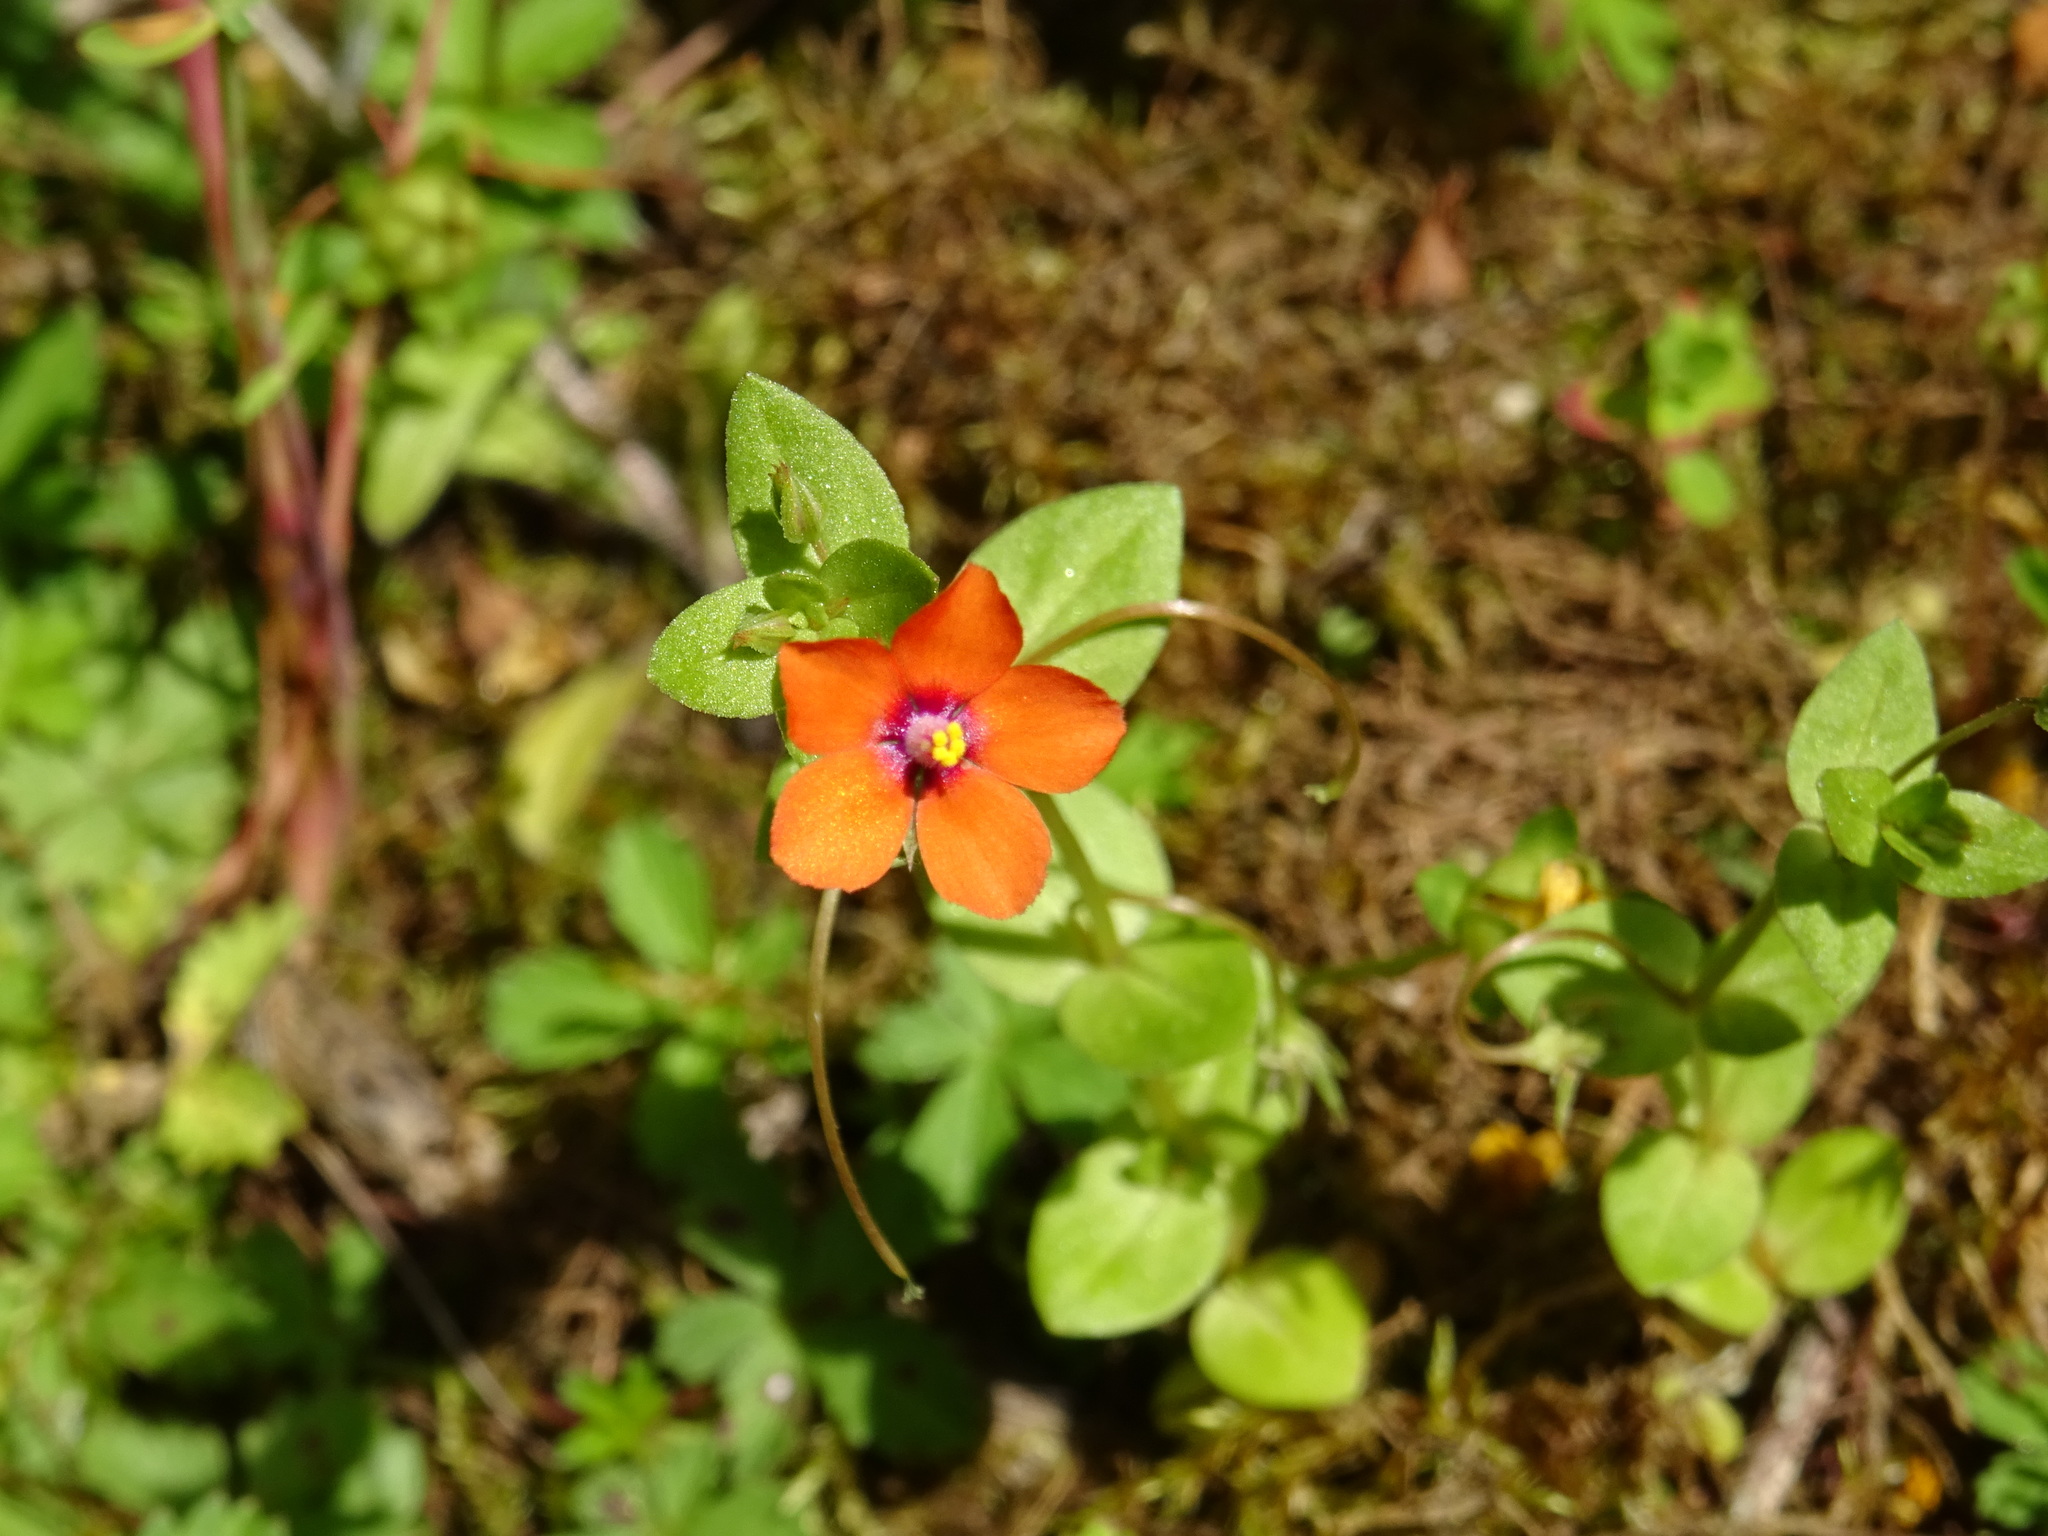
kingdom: Plantae
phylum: Tracheophyta
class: Magnoliopsida
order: Ericales
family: Primulaceae
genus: Lysimachia
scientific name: Lysimachia arvensis
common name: Scarlet pimpernel
